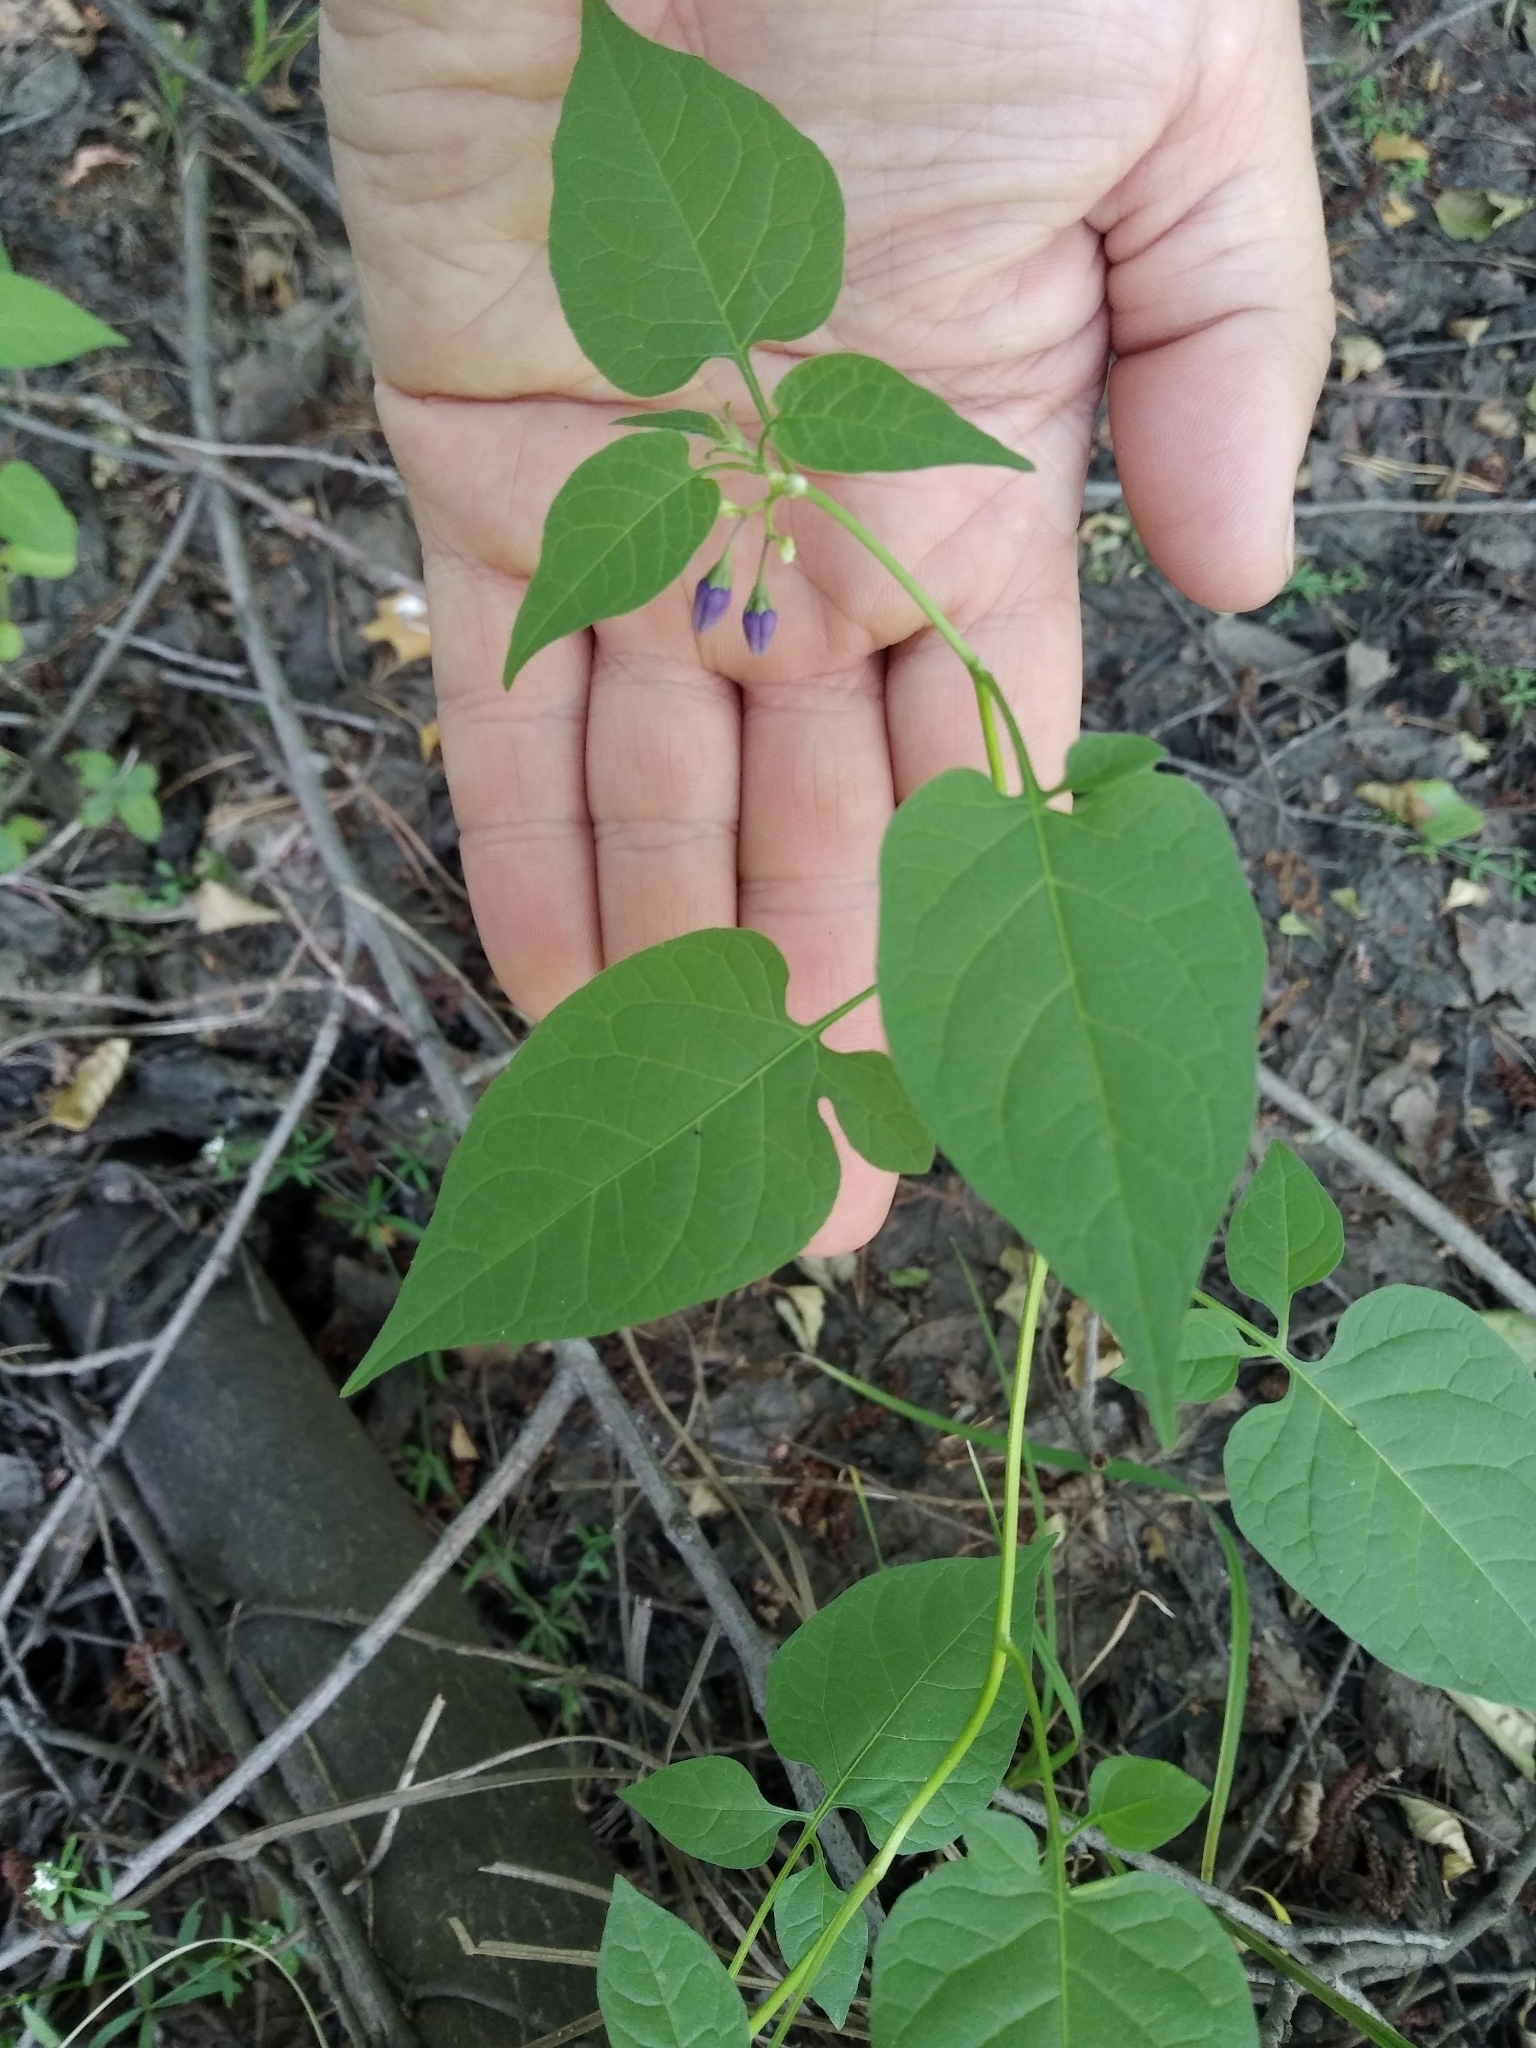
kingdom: Plantae
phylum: Tracheophyta
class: Magnoliopsida
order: Solanales
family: Solanaceae
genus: Solanum
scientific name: Solanum dulcamara
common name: Climbing nightshade
